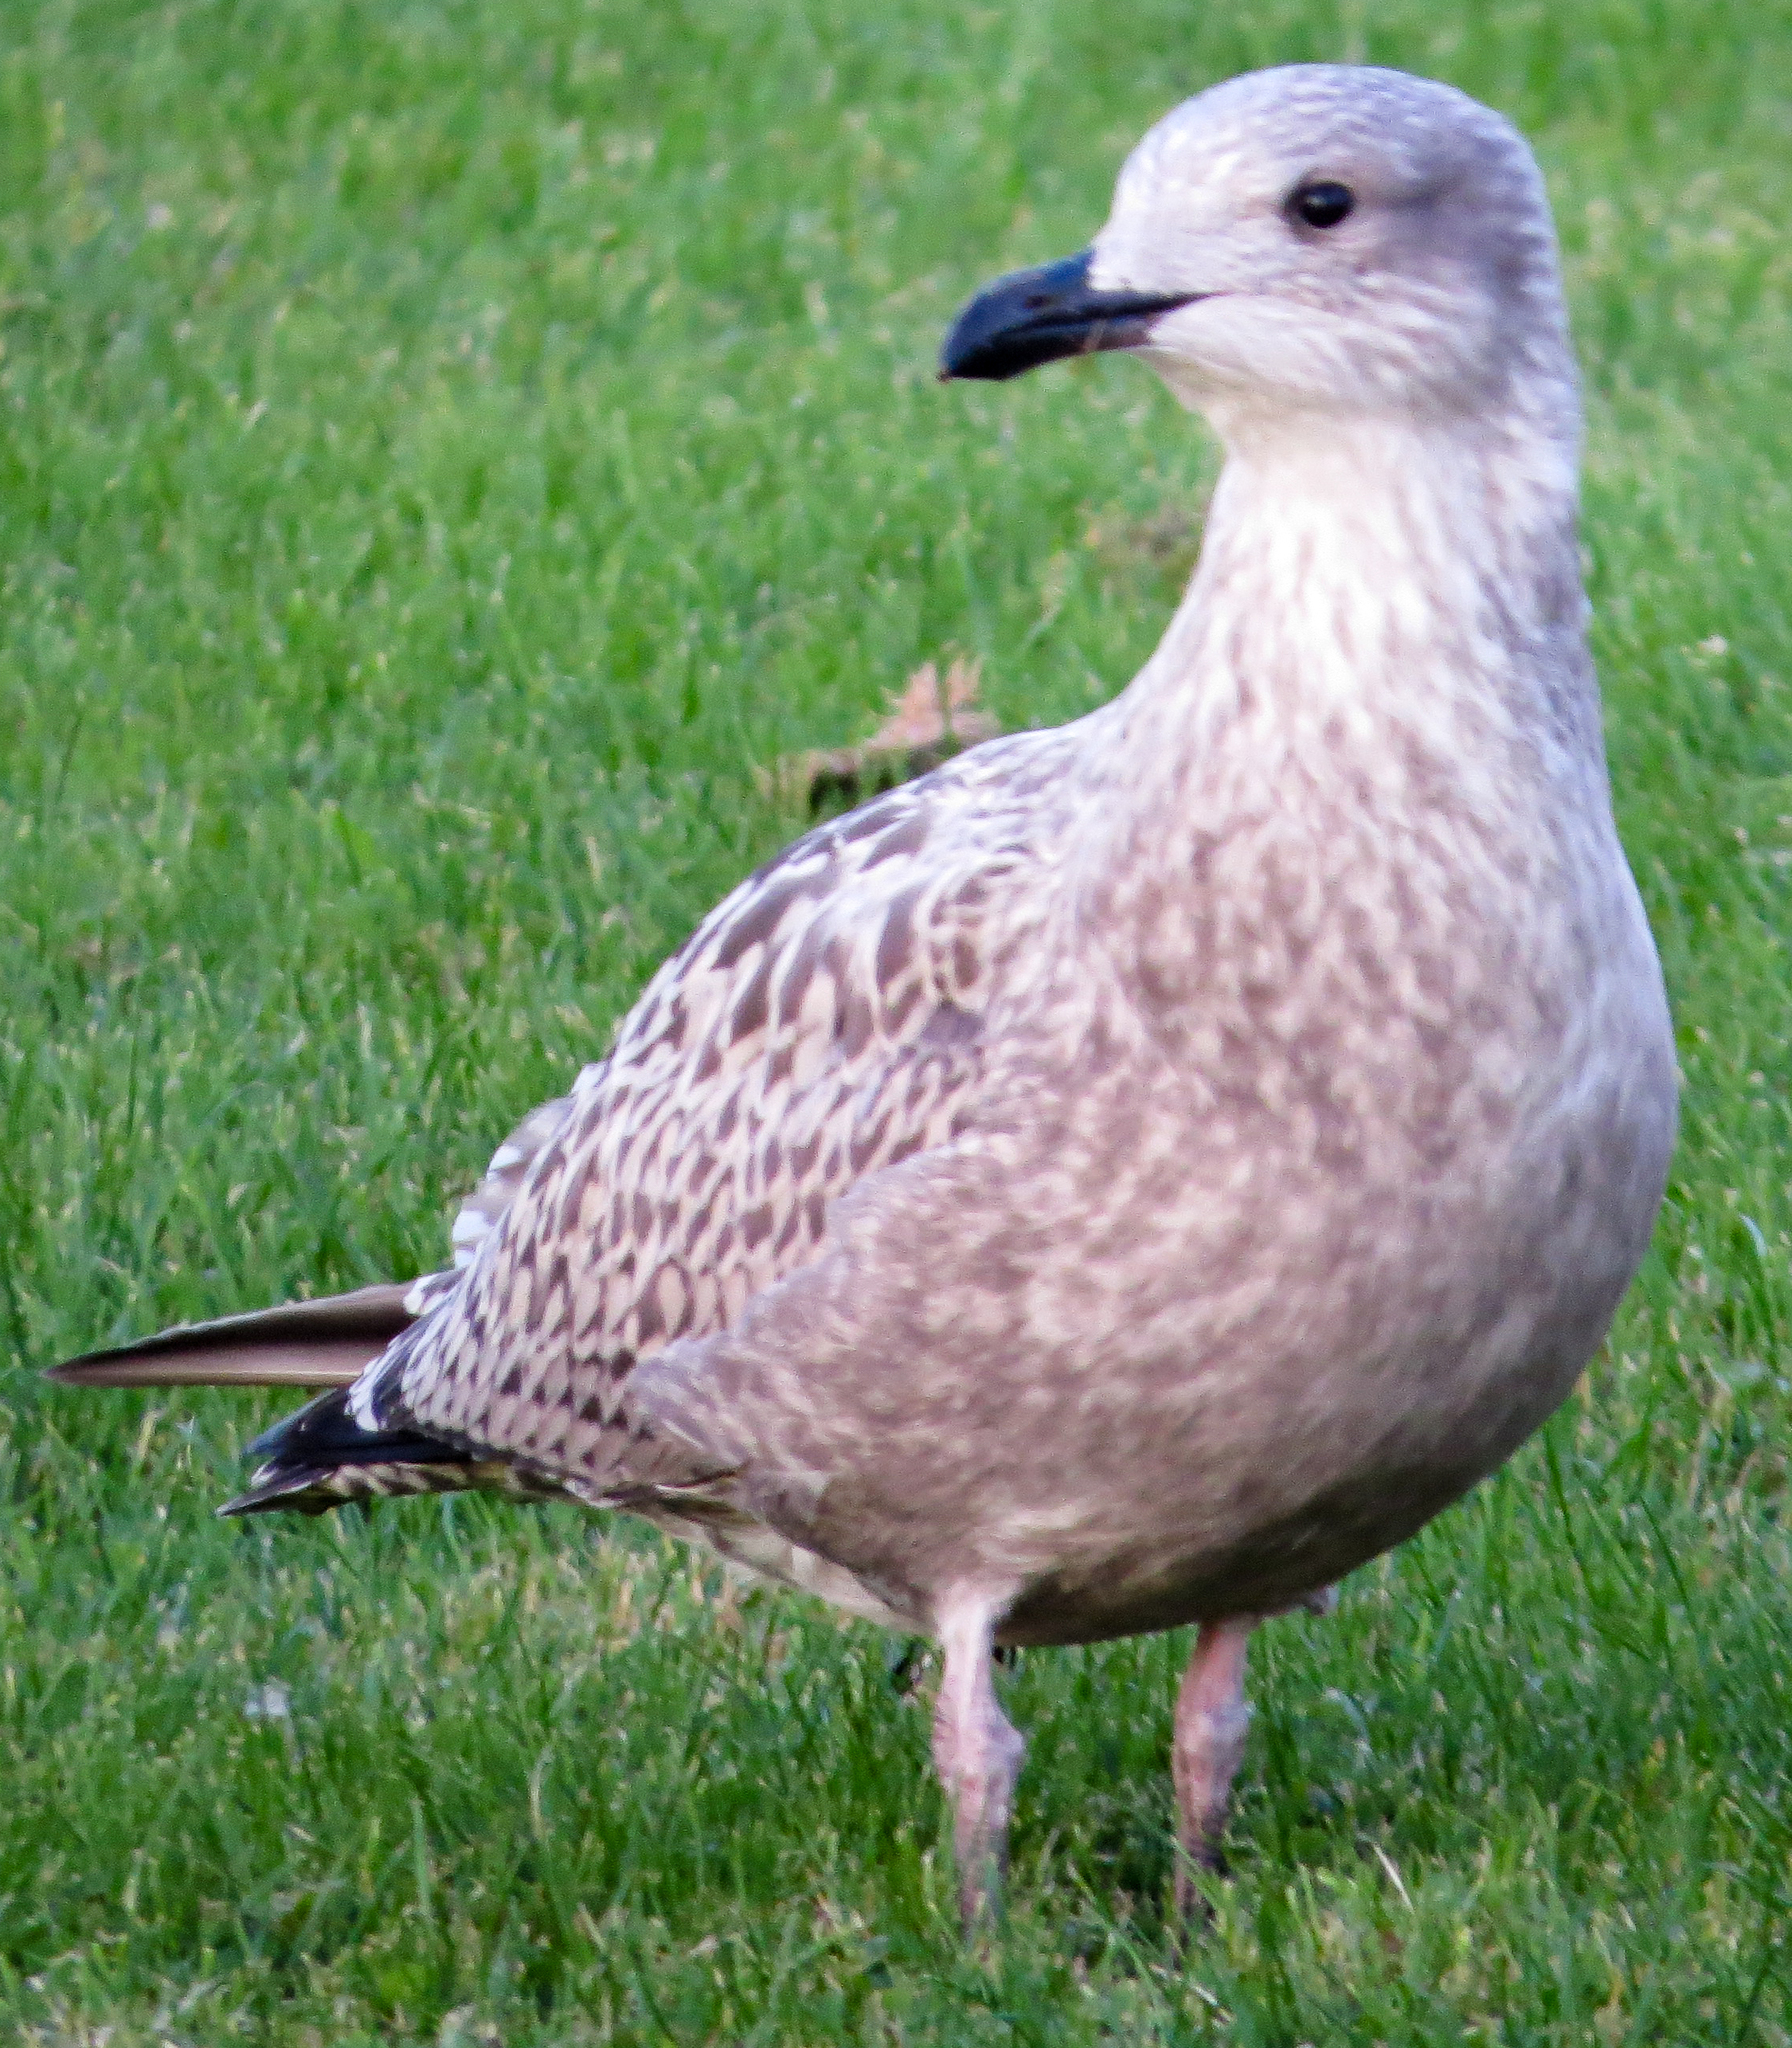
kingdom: Animalia
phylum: Chordata
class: Aves
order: Charadriiformes
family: Laridae
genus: Larus
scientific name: Larus argentatus
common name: Herring gull
